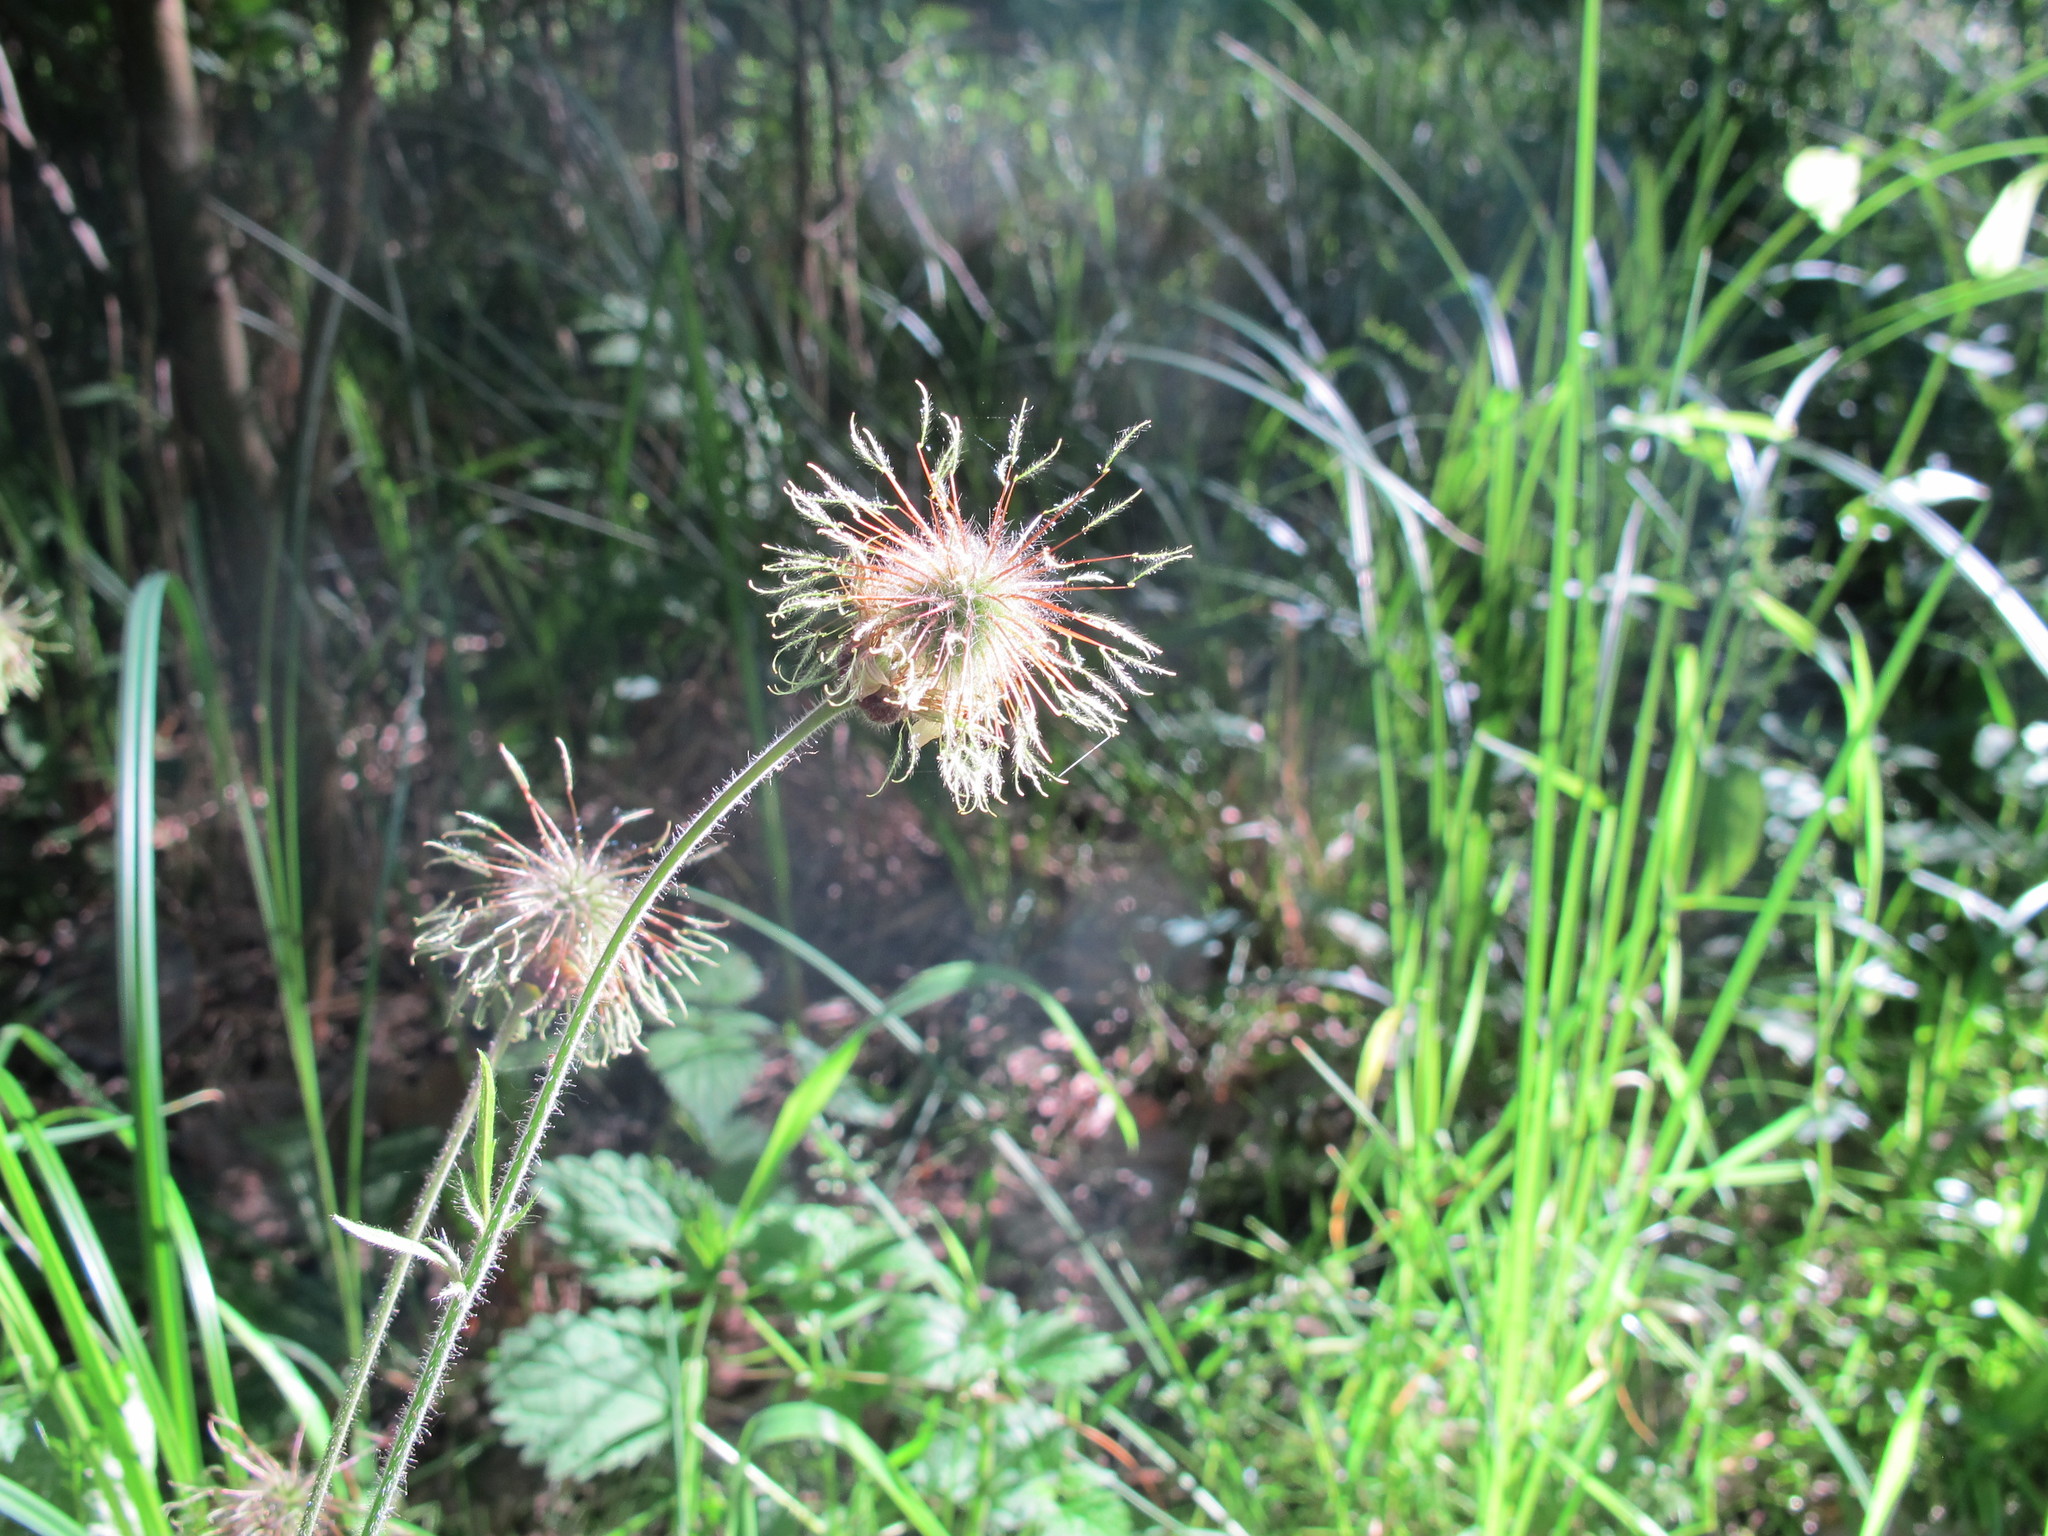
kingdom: Plantae
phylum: Tracheophyta
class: Magnoliopsida
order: Rosales
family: Rosaceae
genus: Geum
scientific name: Geum rivale
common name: Water avens
